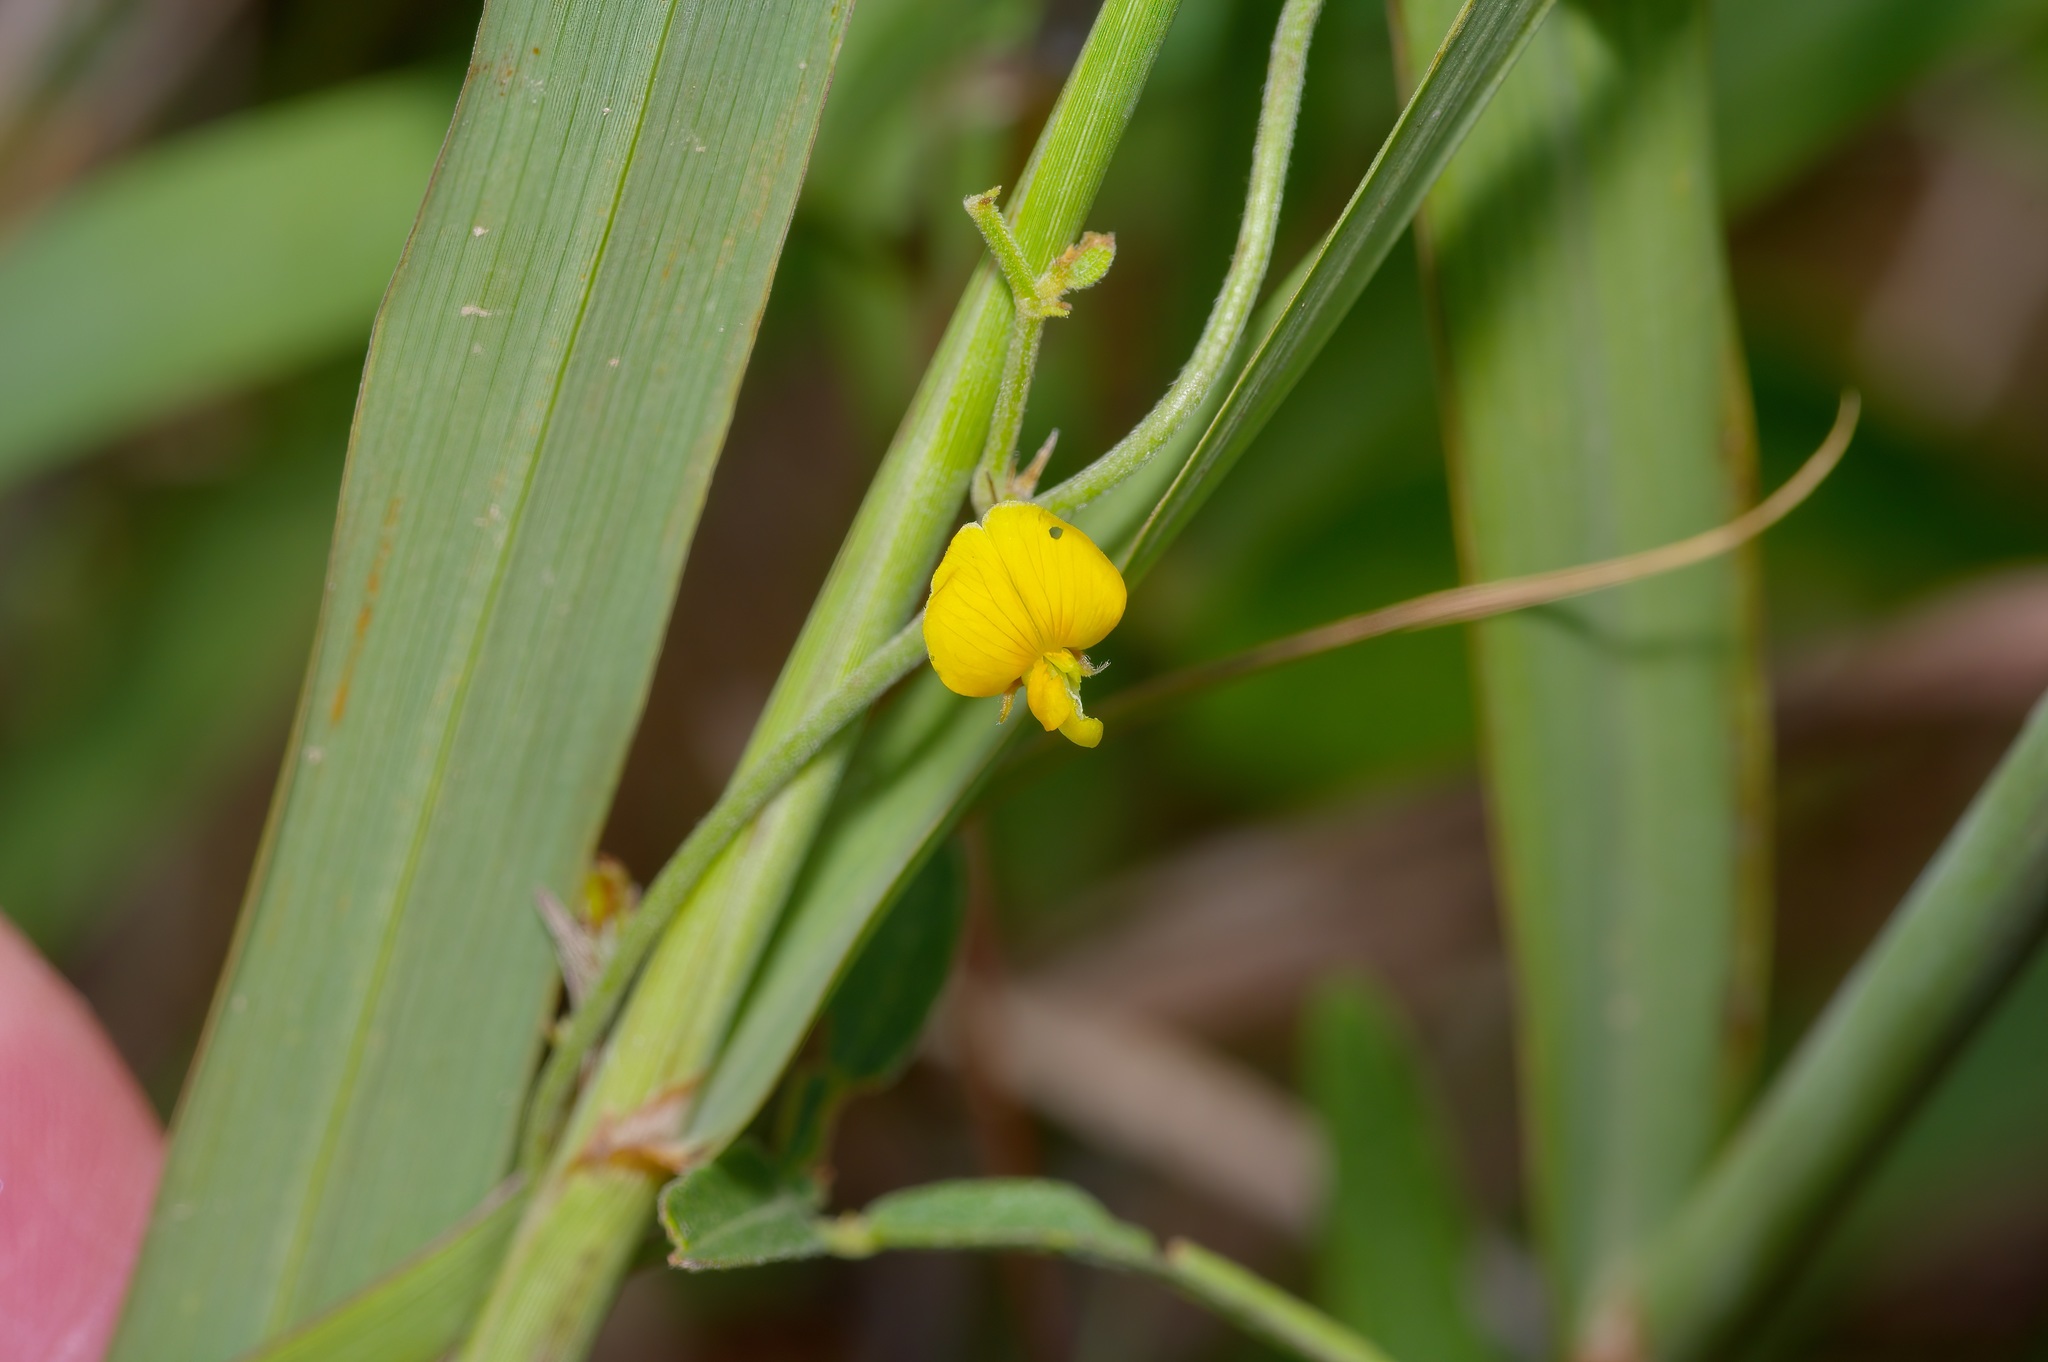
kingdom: Plantae
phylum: Tracheophyta
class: Magnoliopsida
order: Fabales
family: Fabaceae
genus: Rhynchosia
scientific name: Rhynchosia senna
